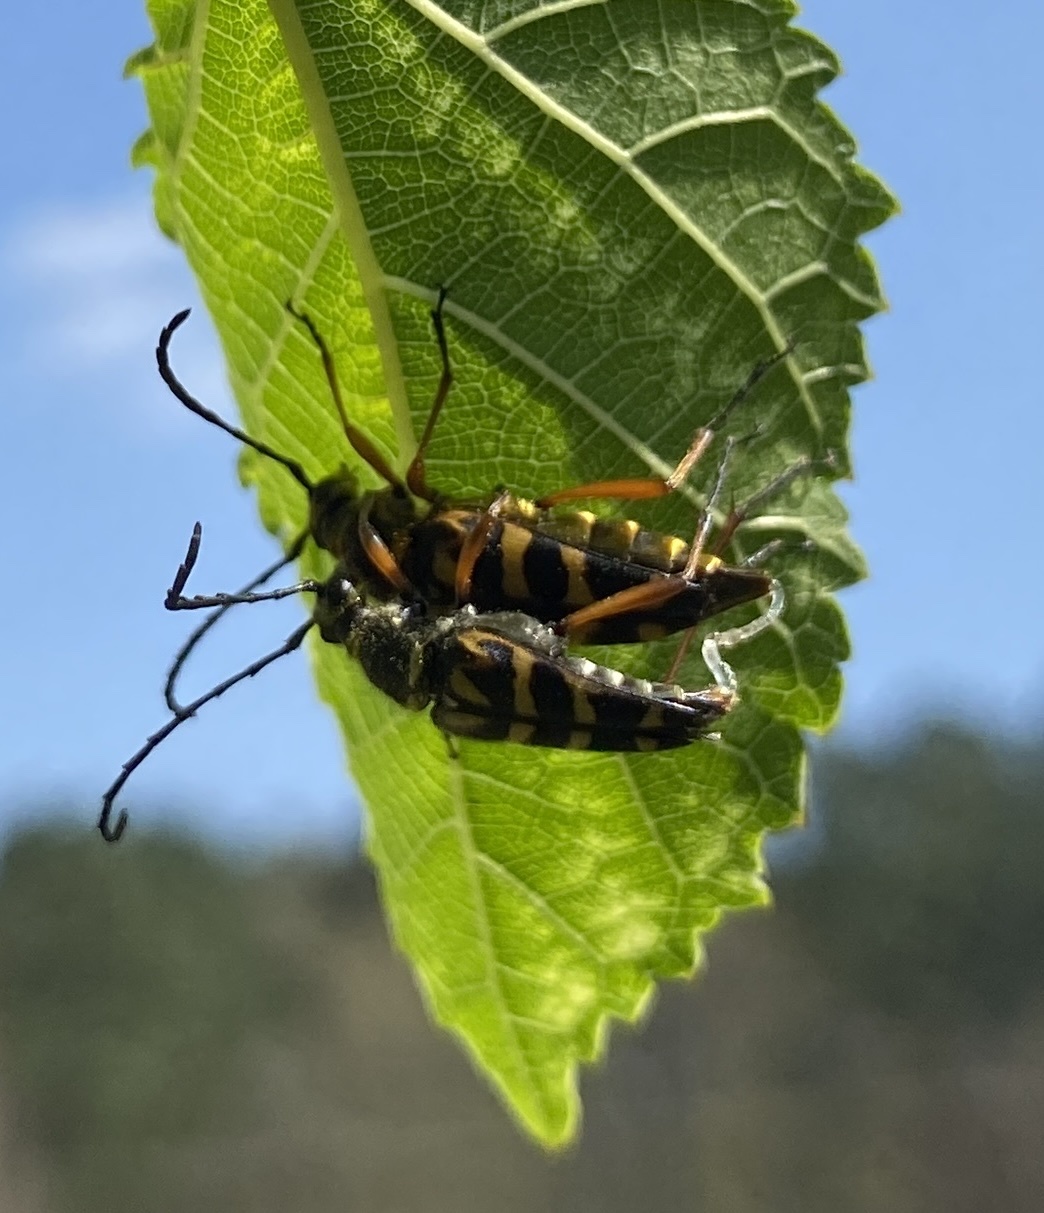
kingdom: Animalia
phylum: Arthropoda
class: Insecta
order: Coleoptera
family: Cerambycidae
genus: Typocerus
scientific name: Typocerus zebra
